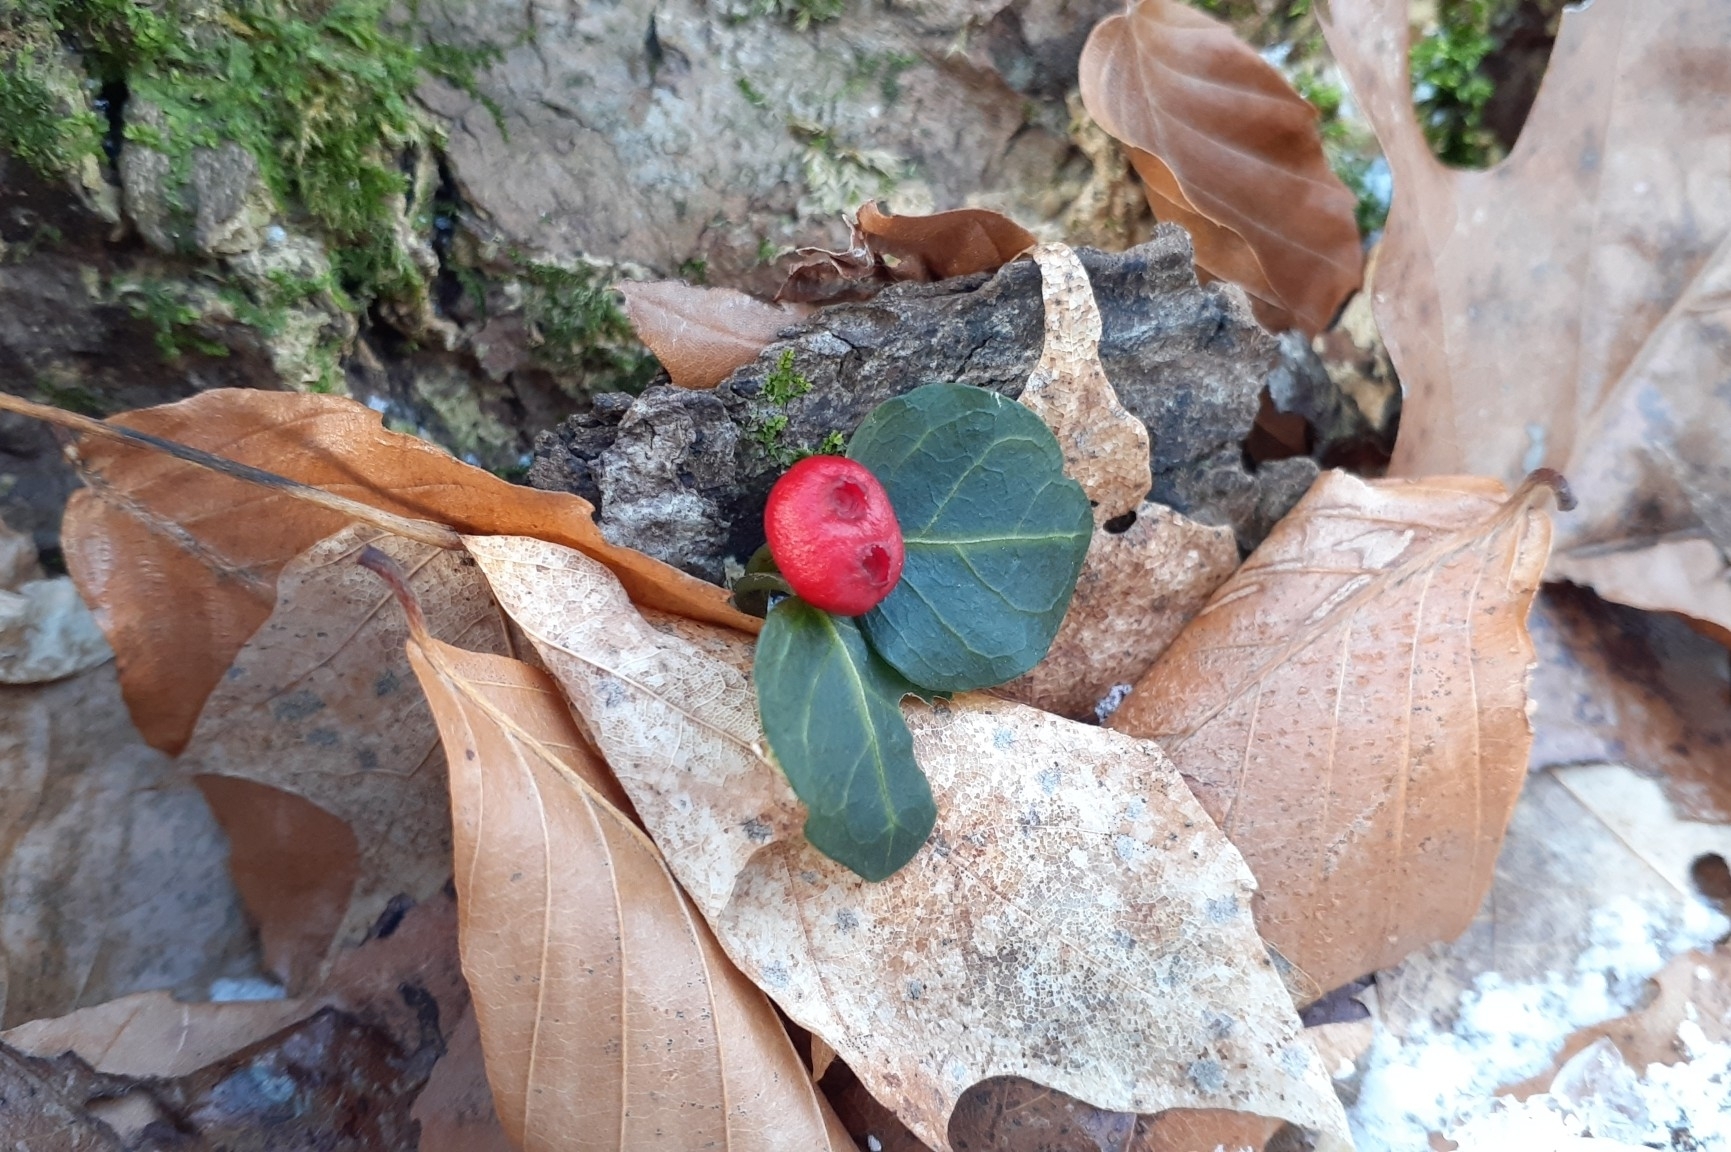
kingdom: Plantae
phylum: Tracheophyta
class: Magnoliopsida
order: Gentianales
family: Rubiaceae
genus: Mitchella
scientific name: Mitchella repens
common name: Partridge-berry
